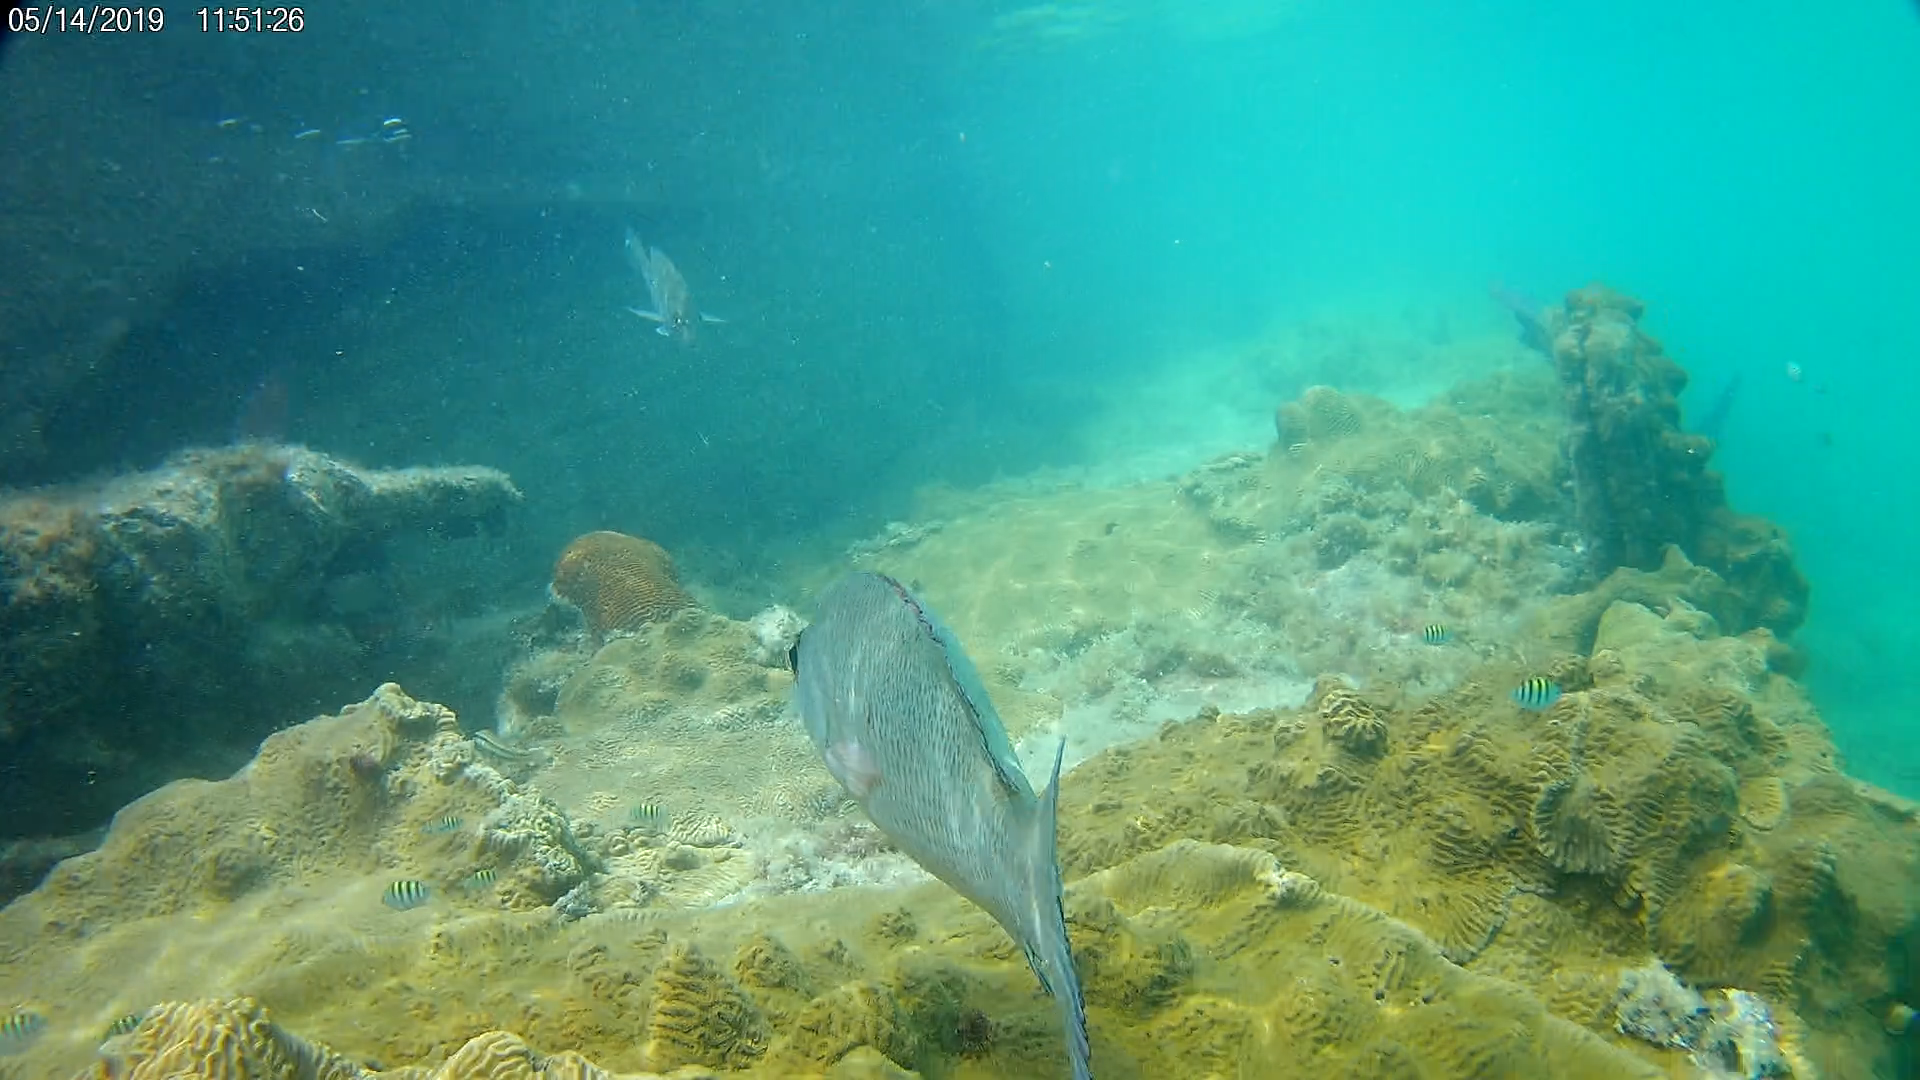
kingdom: Animalia
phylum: Chordata
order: Perciformes
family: Lutjanidae
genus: Lutjanus
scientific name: Lutjanus griseus
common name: Gray snapper
